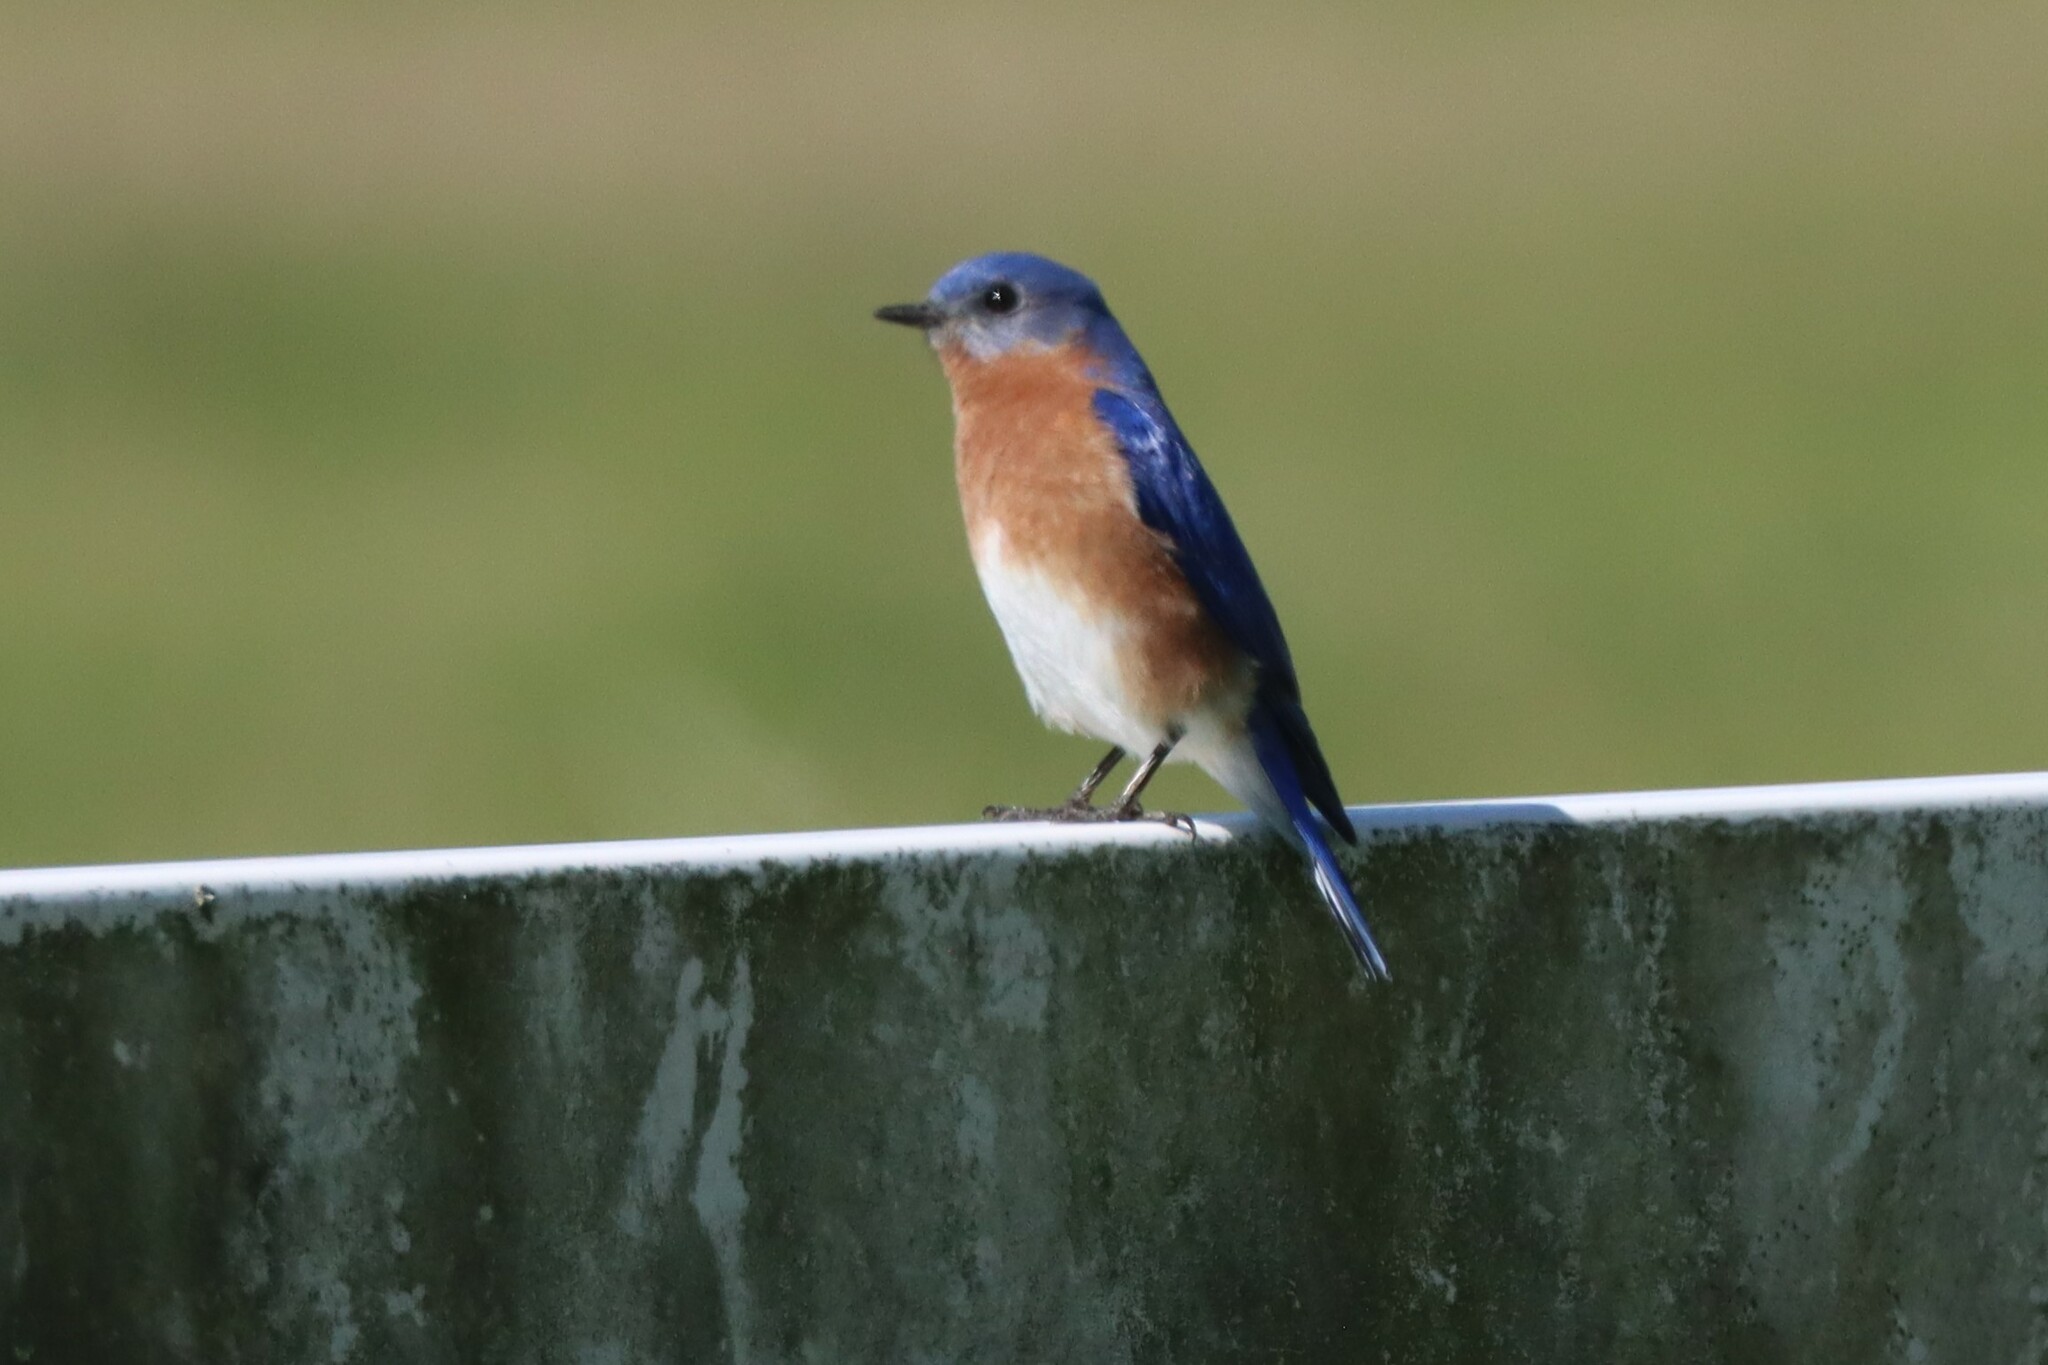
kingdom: Animalia
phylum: Chordata
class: Aves
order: Passeriformes
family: Turdidae
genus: Sialia
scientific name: Sialia sialis
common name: Eastern bluebird
